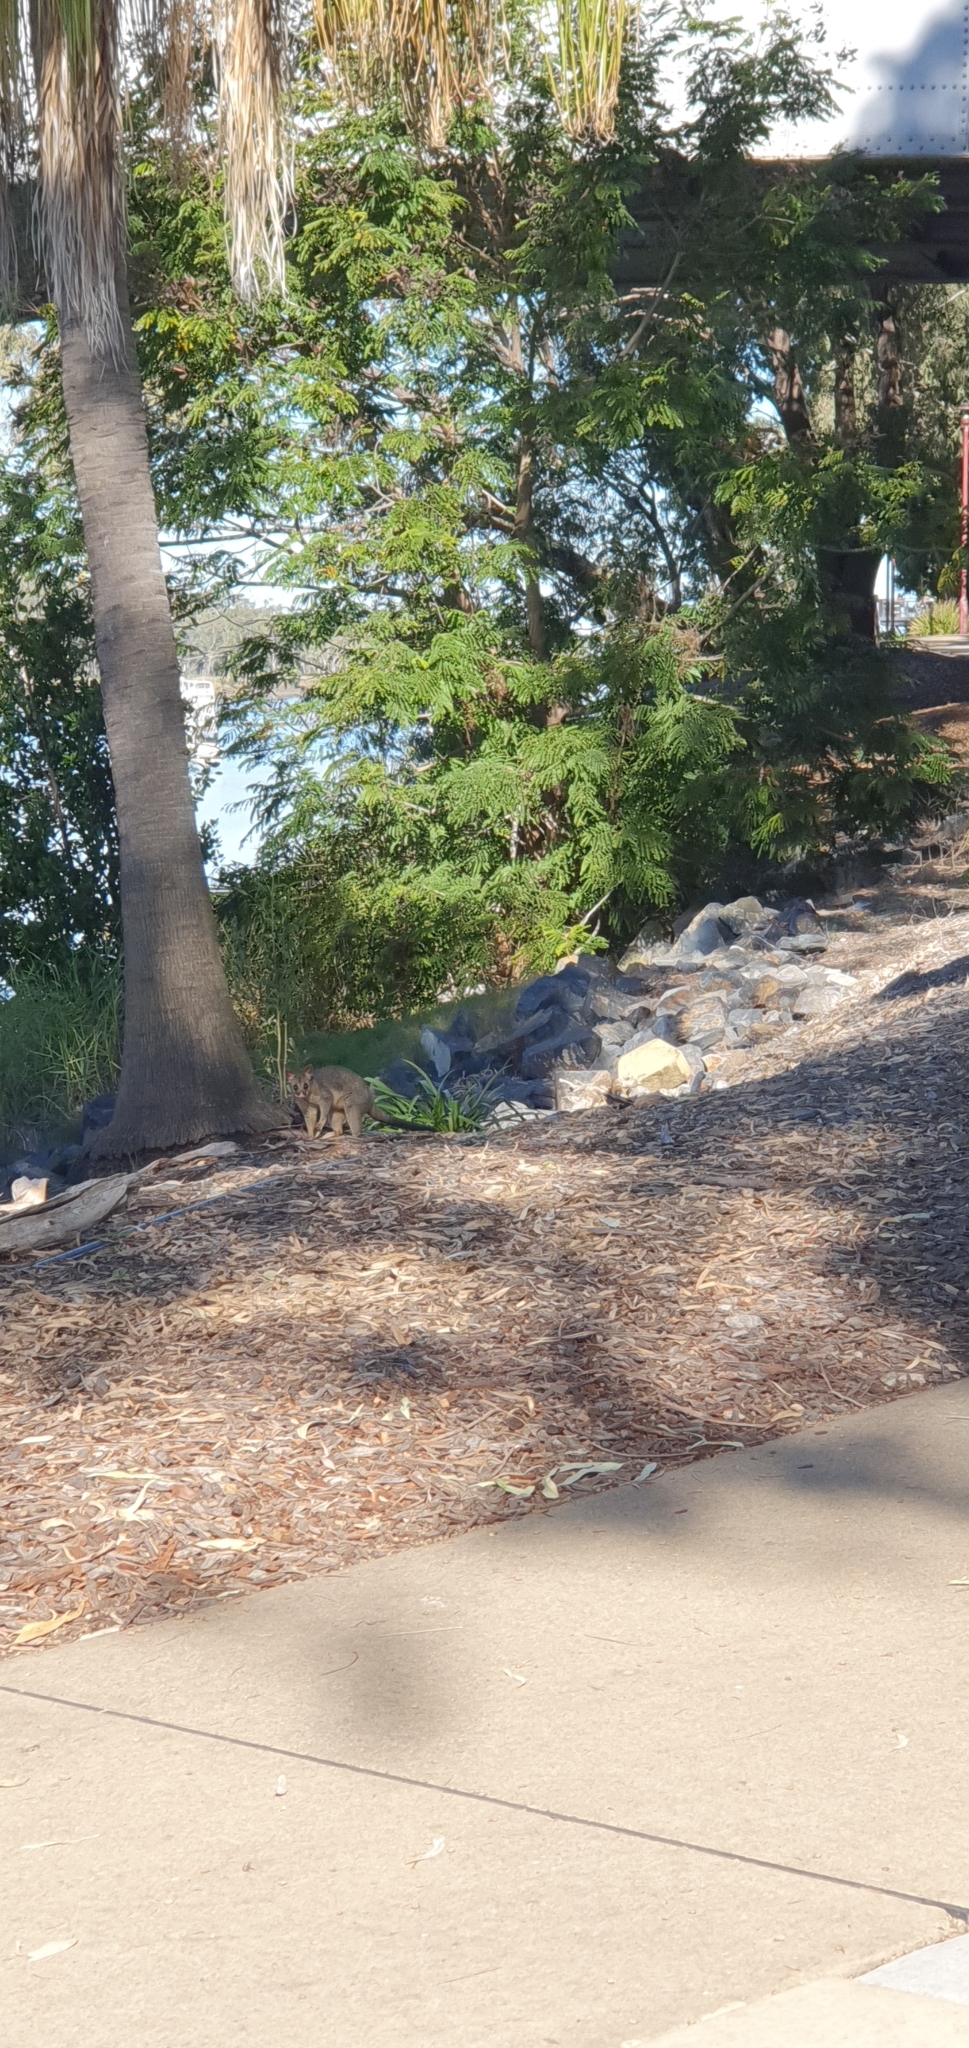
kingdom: Animalia
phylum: Chordata
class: Mammalia
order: Diprotodontia
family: Phalangeridae
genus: Trichosurus
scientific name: Trichosurus vulpecula
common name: Common brushtail
